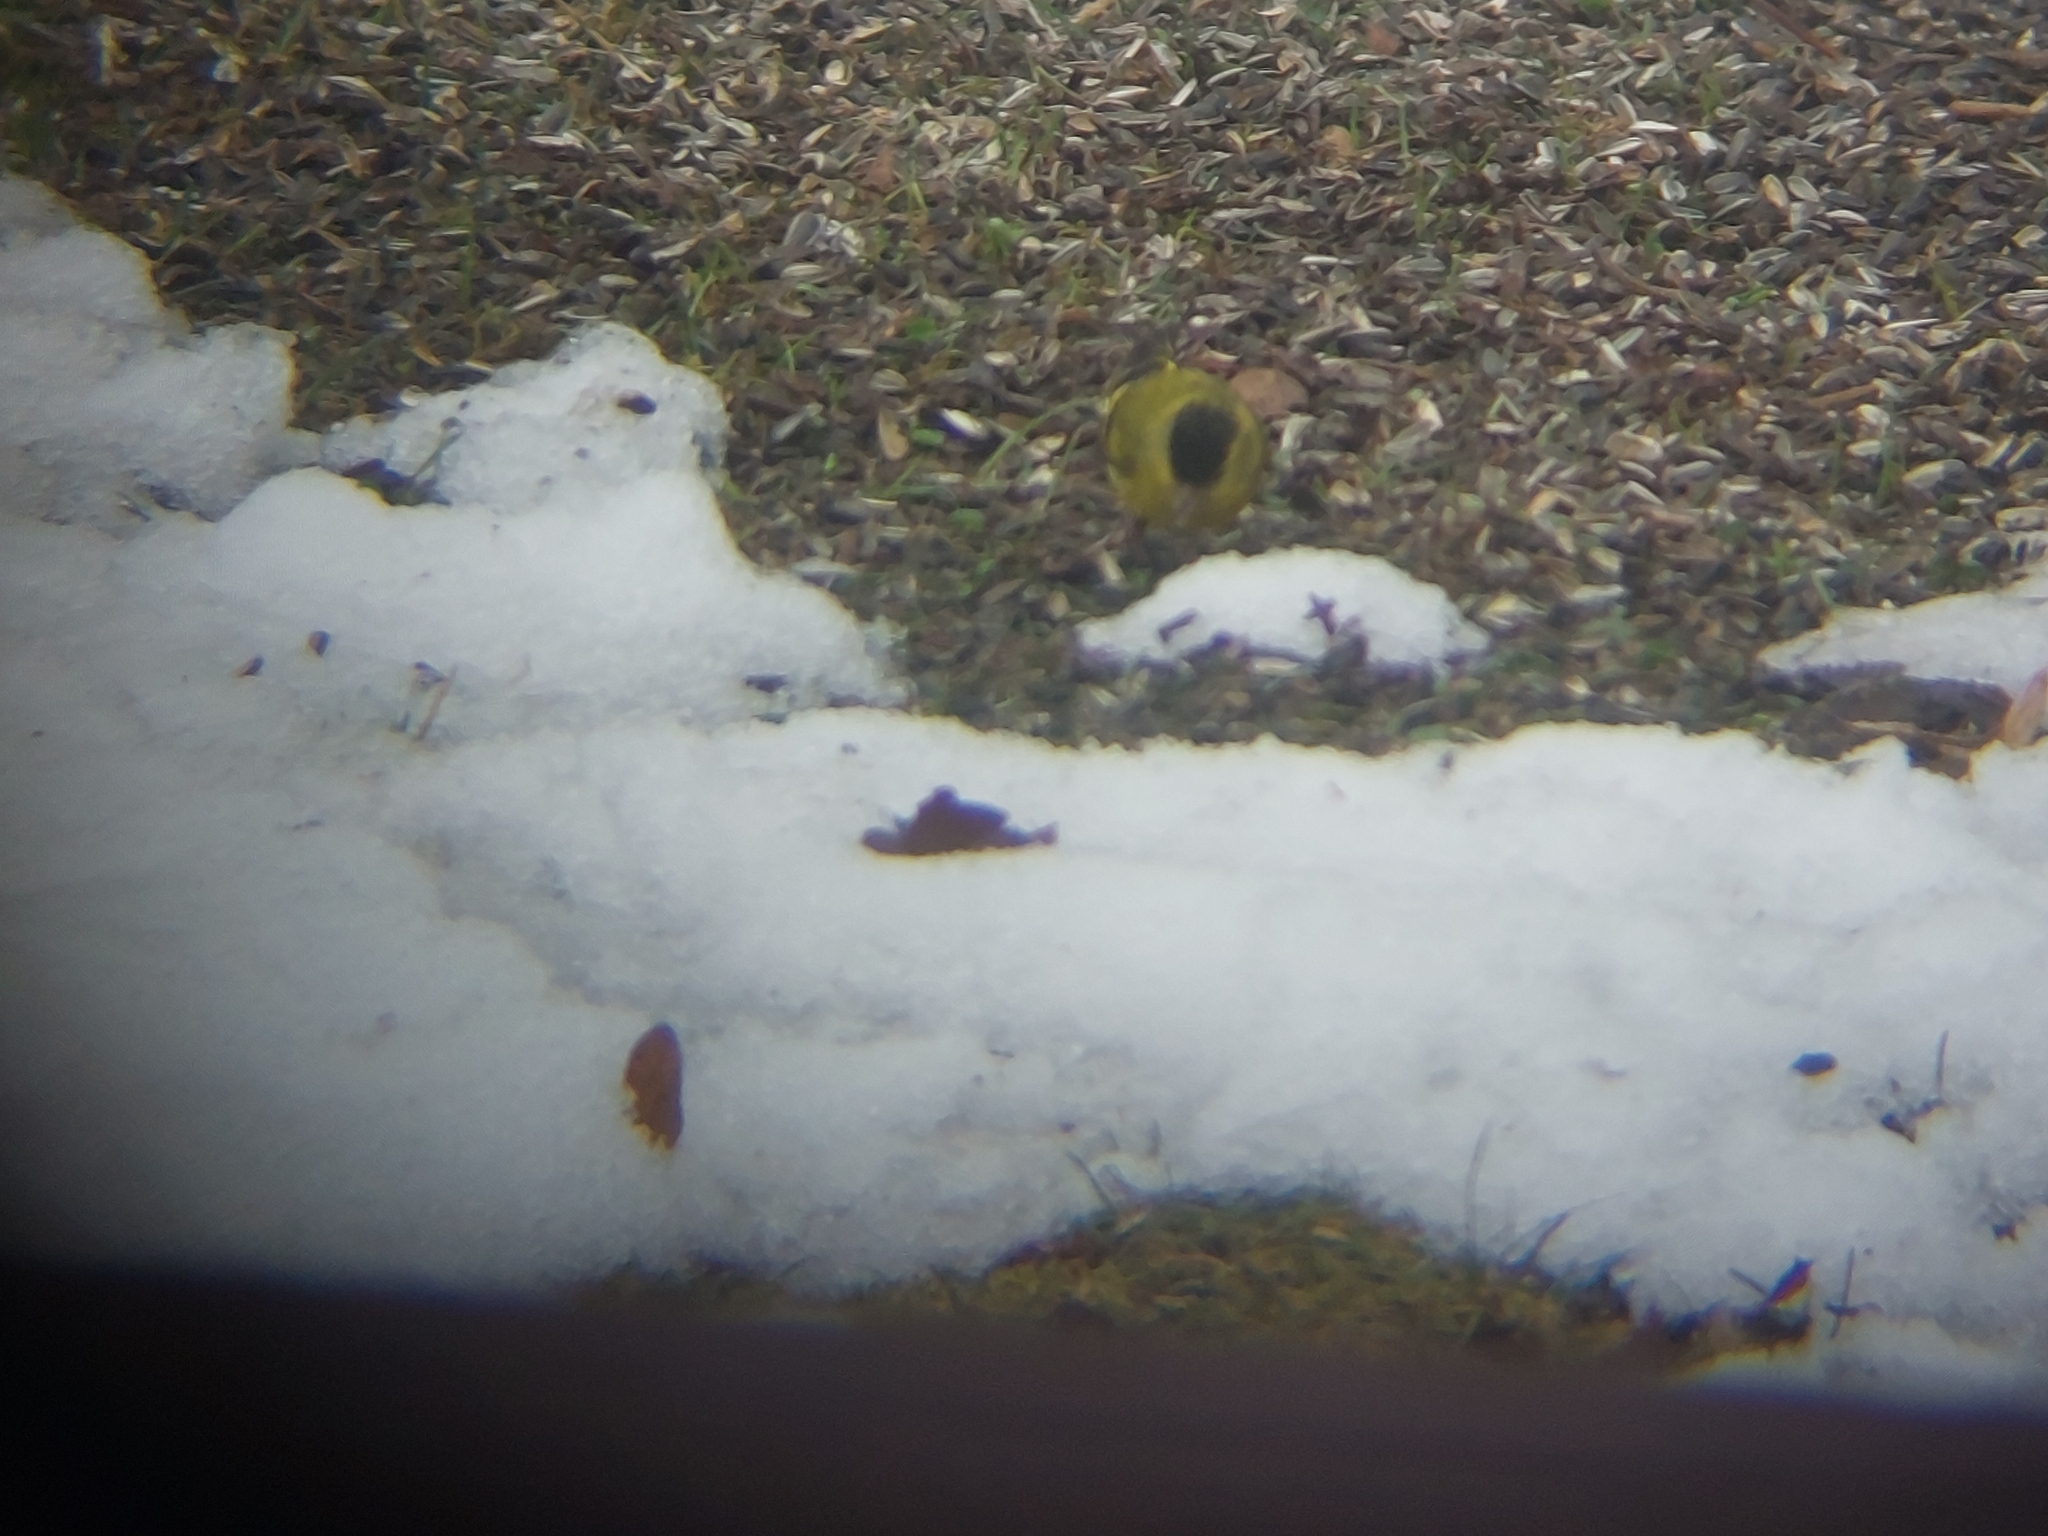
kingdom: Animalia
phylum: Chordata
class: Aves
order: Passeriformes
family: Fringillidae
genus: Spinus
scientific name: Spinus spinus
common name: Eurasian siskin
